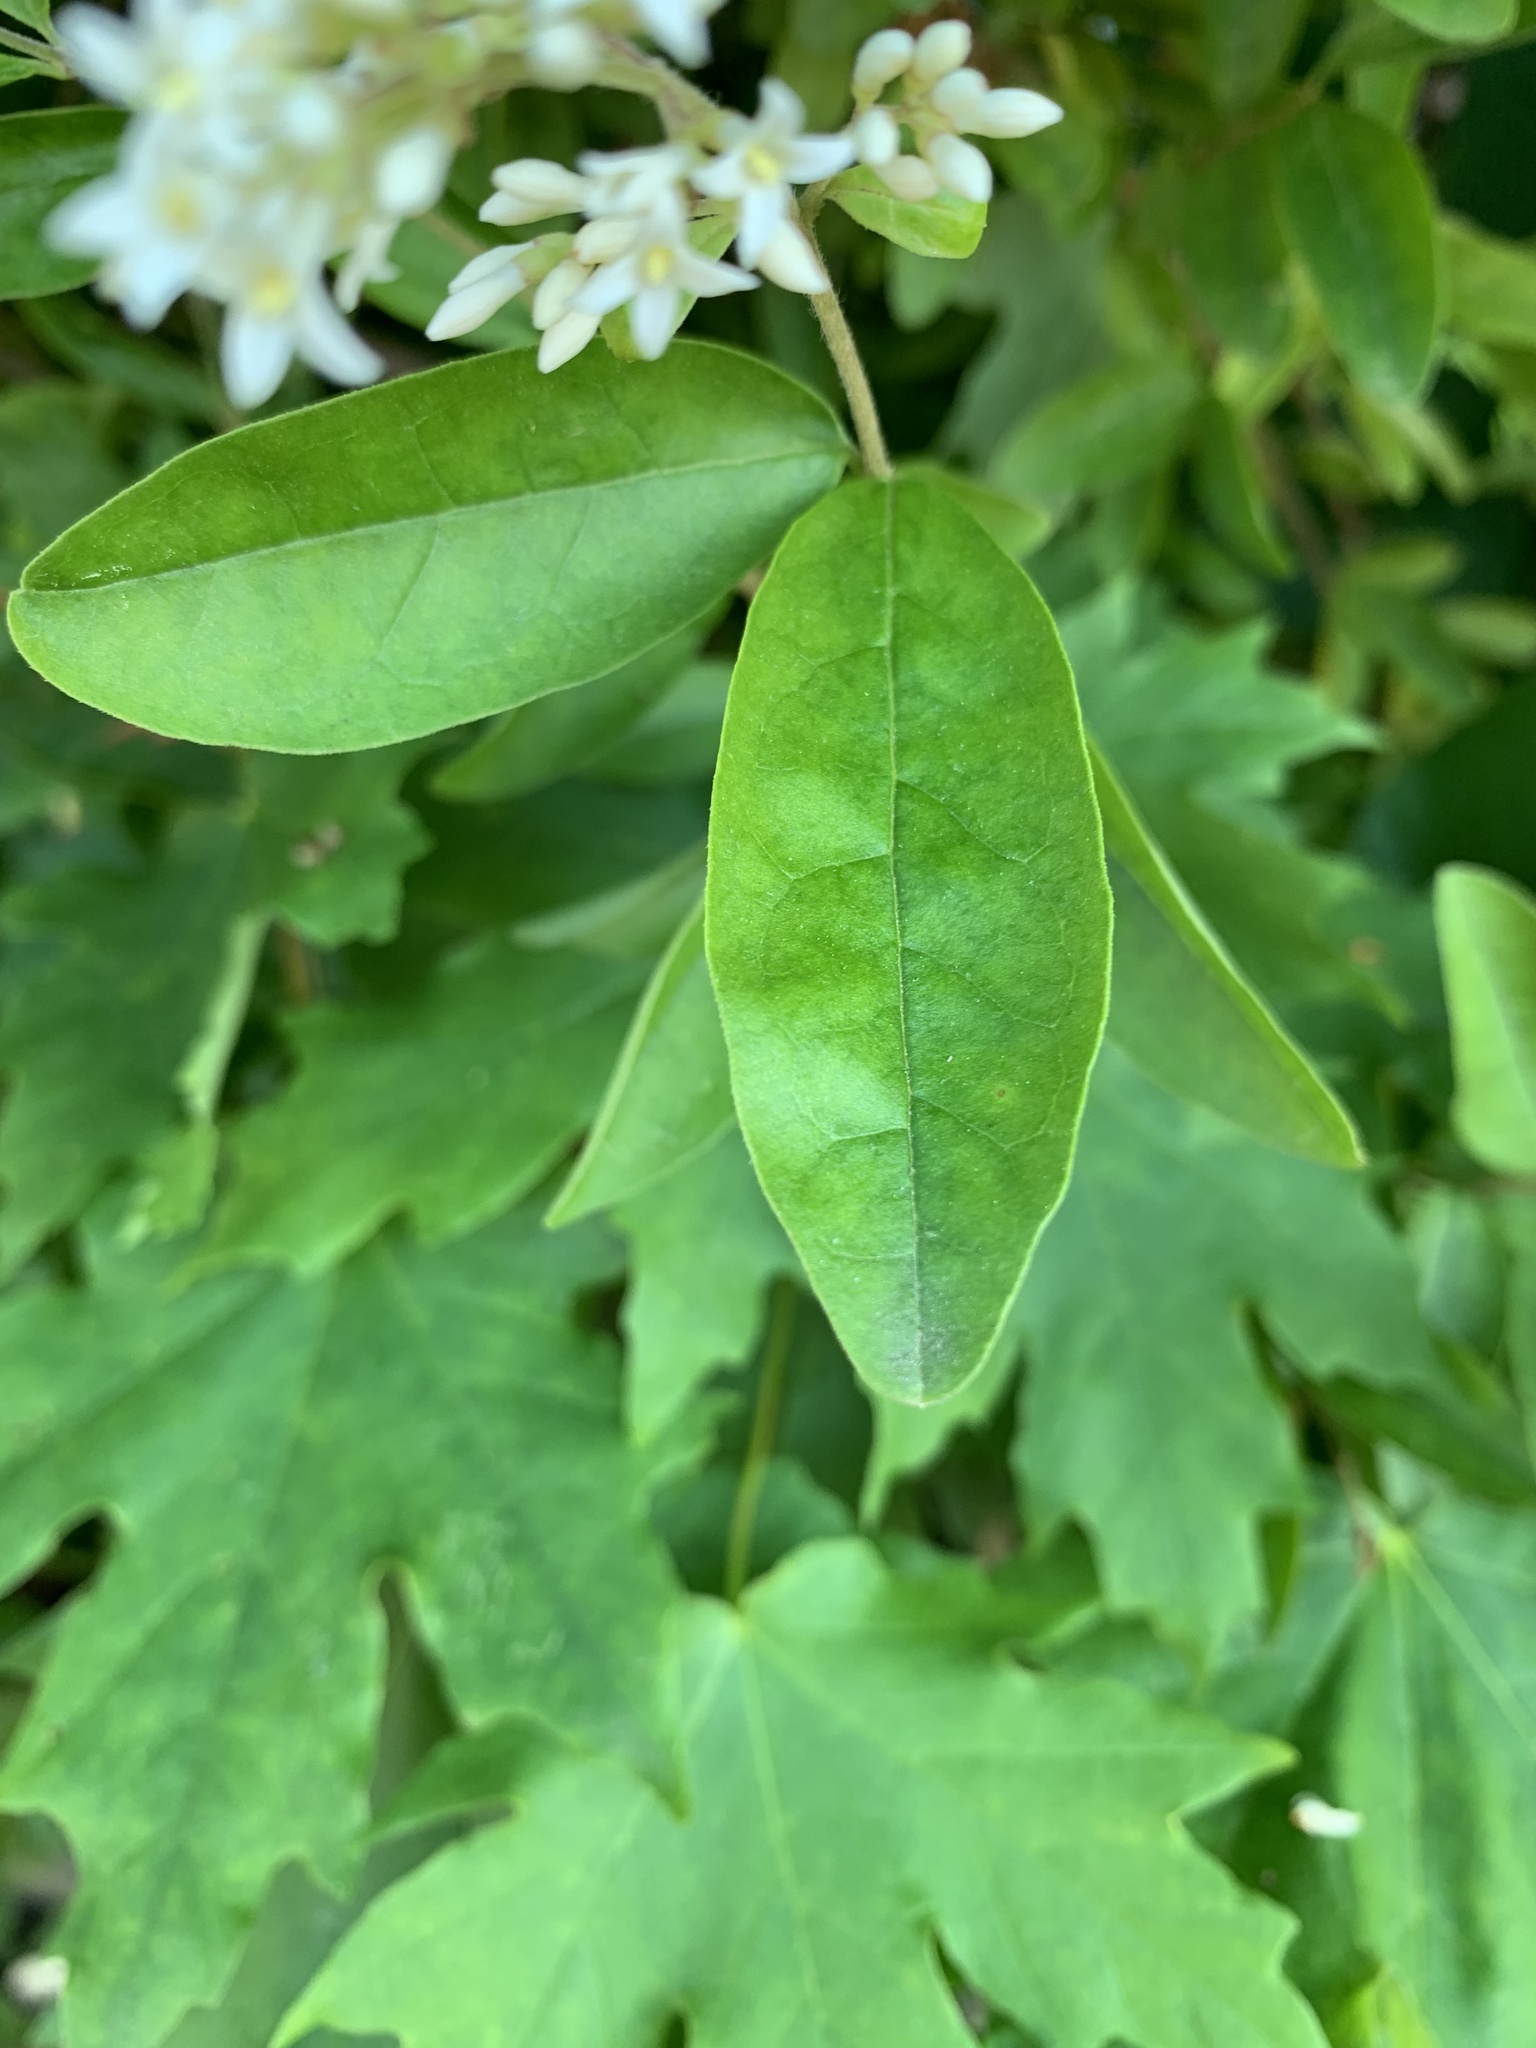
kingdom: Plantae
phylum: Tracheophyta
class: Magnoliopsida
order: Lamiales
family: Oleaceae
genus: Ligustrum
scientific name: Ligustrum obtusifolium
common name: Border privet
